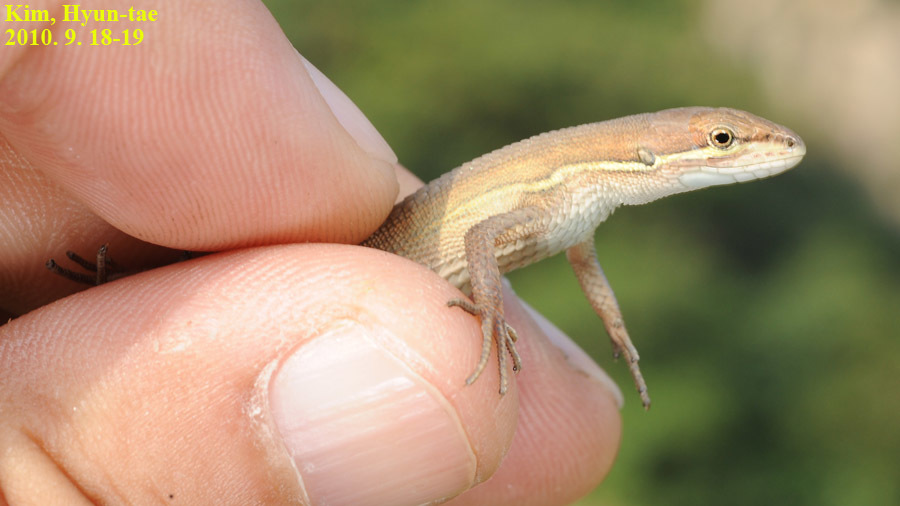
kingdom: Animalia
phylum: Chordata
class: Squamata
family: Lacertidae
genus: Takydromus
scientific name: Takydromus wolteri
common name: Mountain grass lizard
